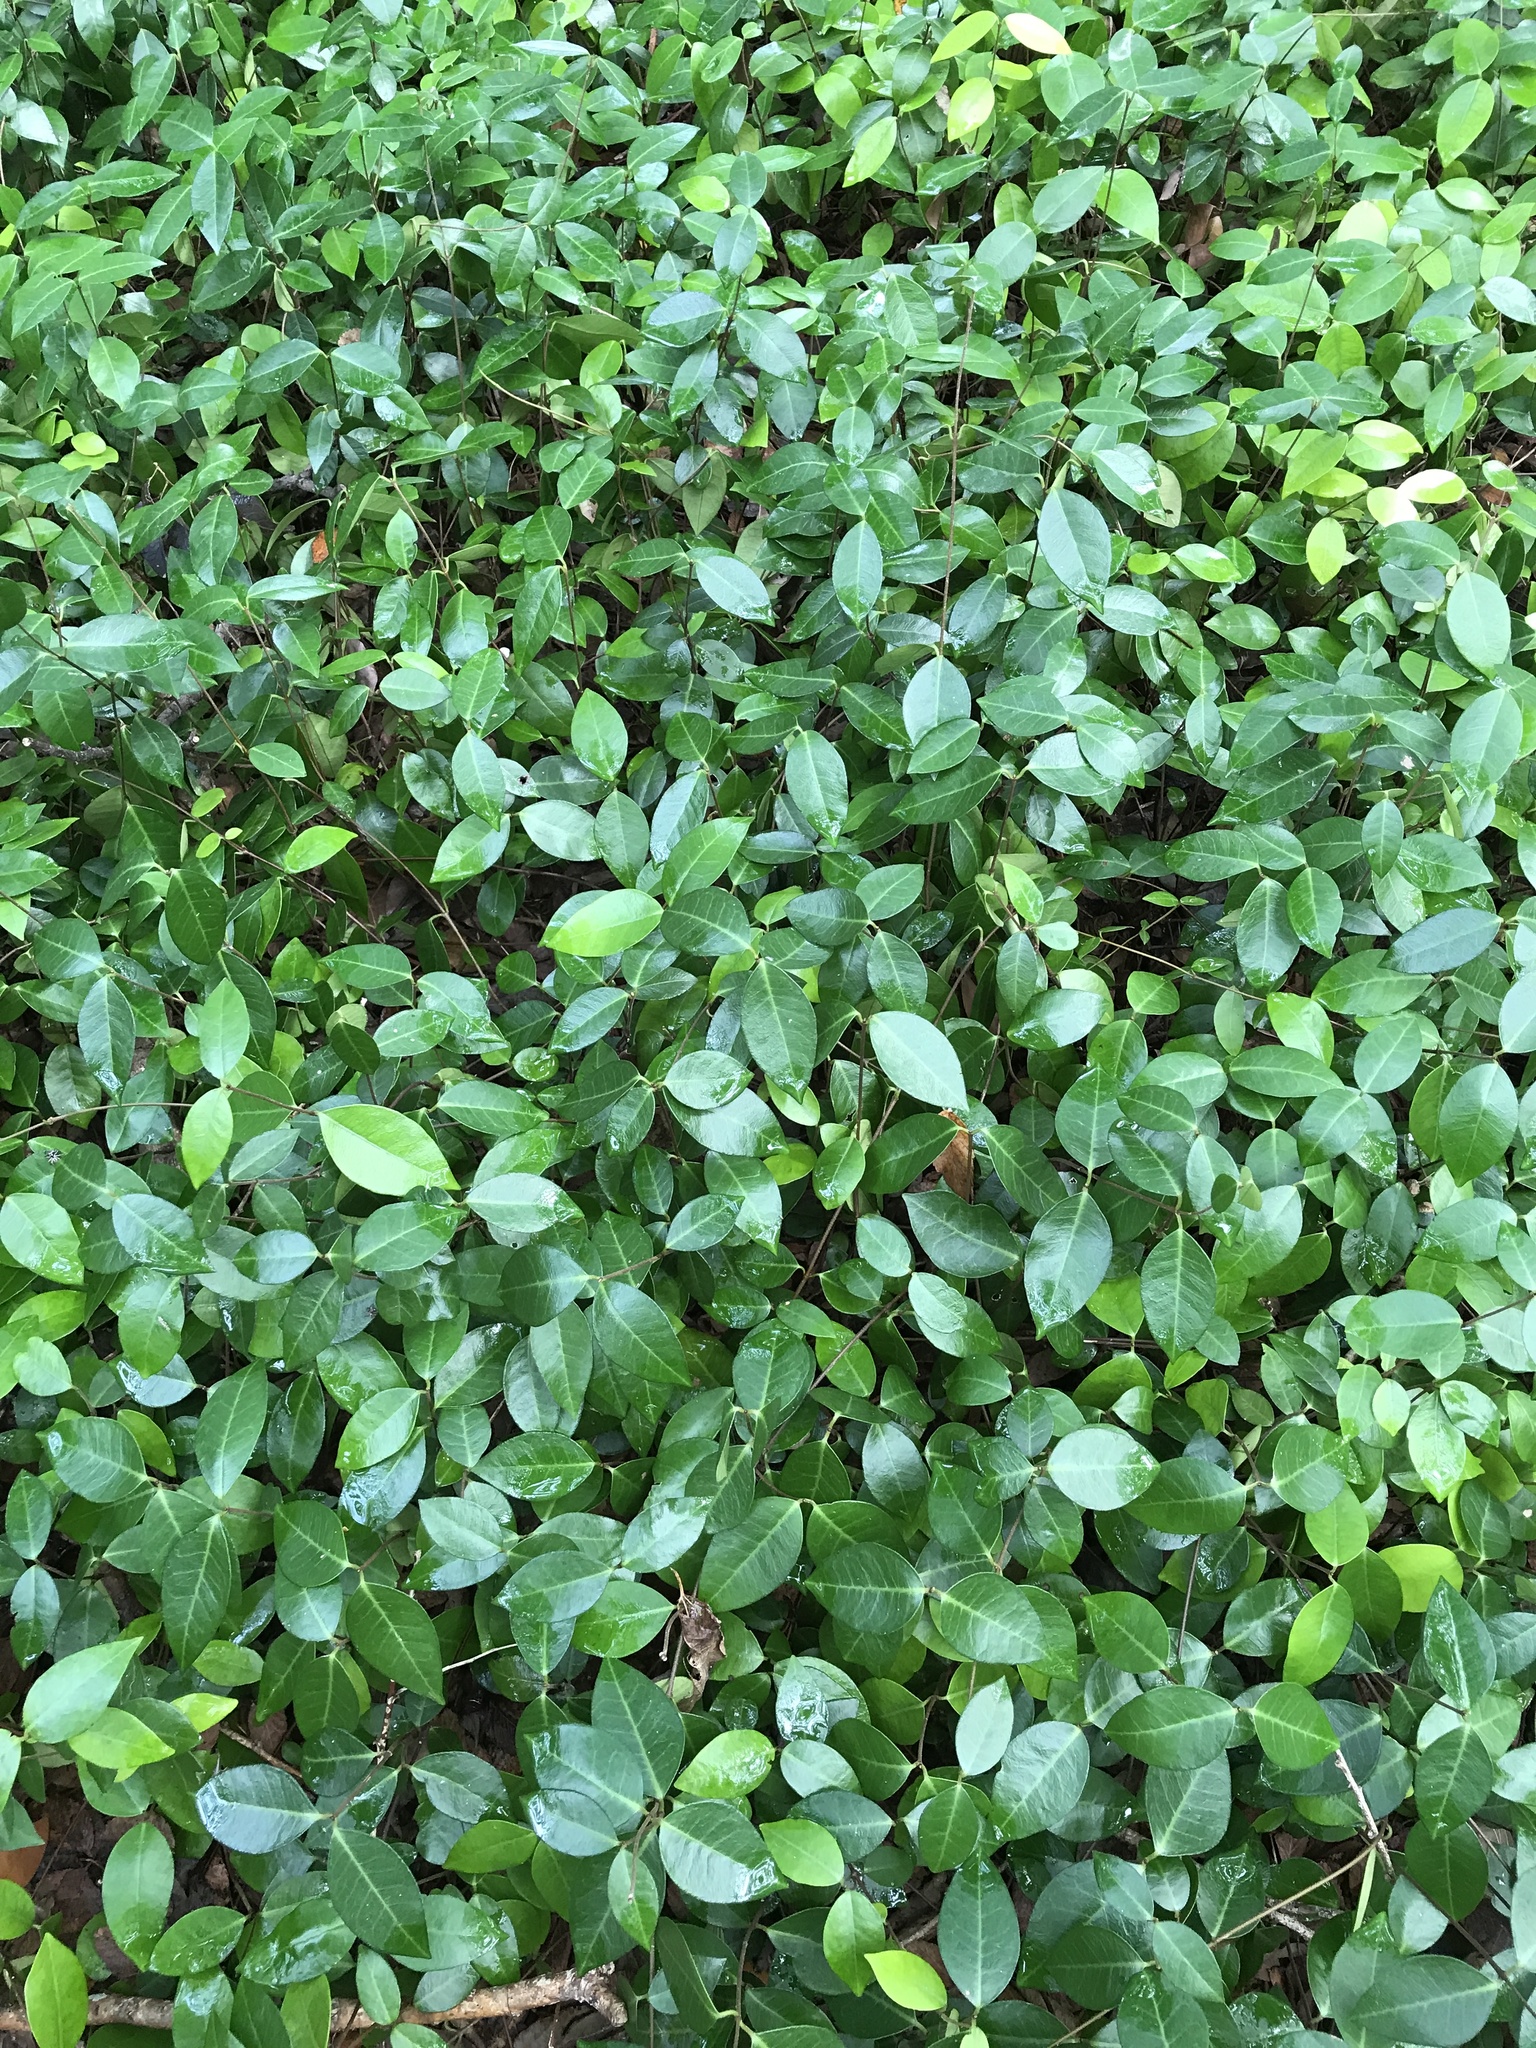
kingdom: Plantae
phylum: Tracheophyta
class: Magnoliopsida
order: Gentianales
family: Apocynaceae
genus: Trachelospermum
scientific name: Trachelospermum asiaticum
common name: Asiatic jasmine
